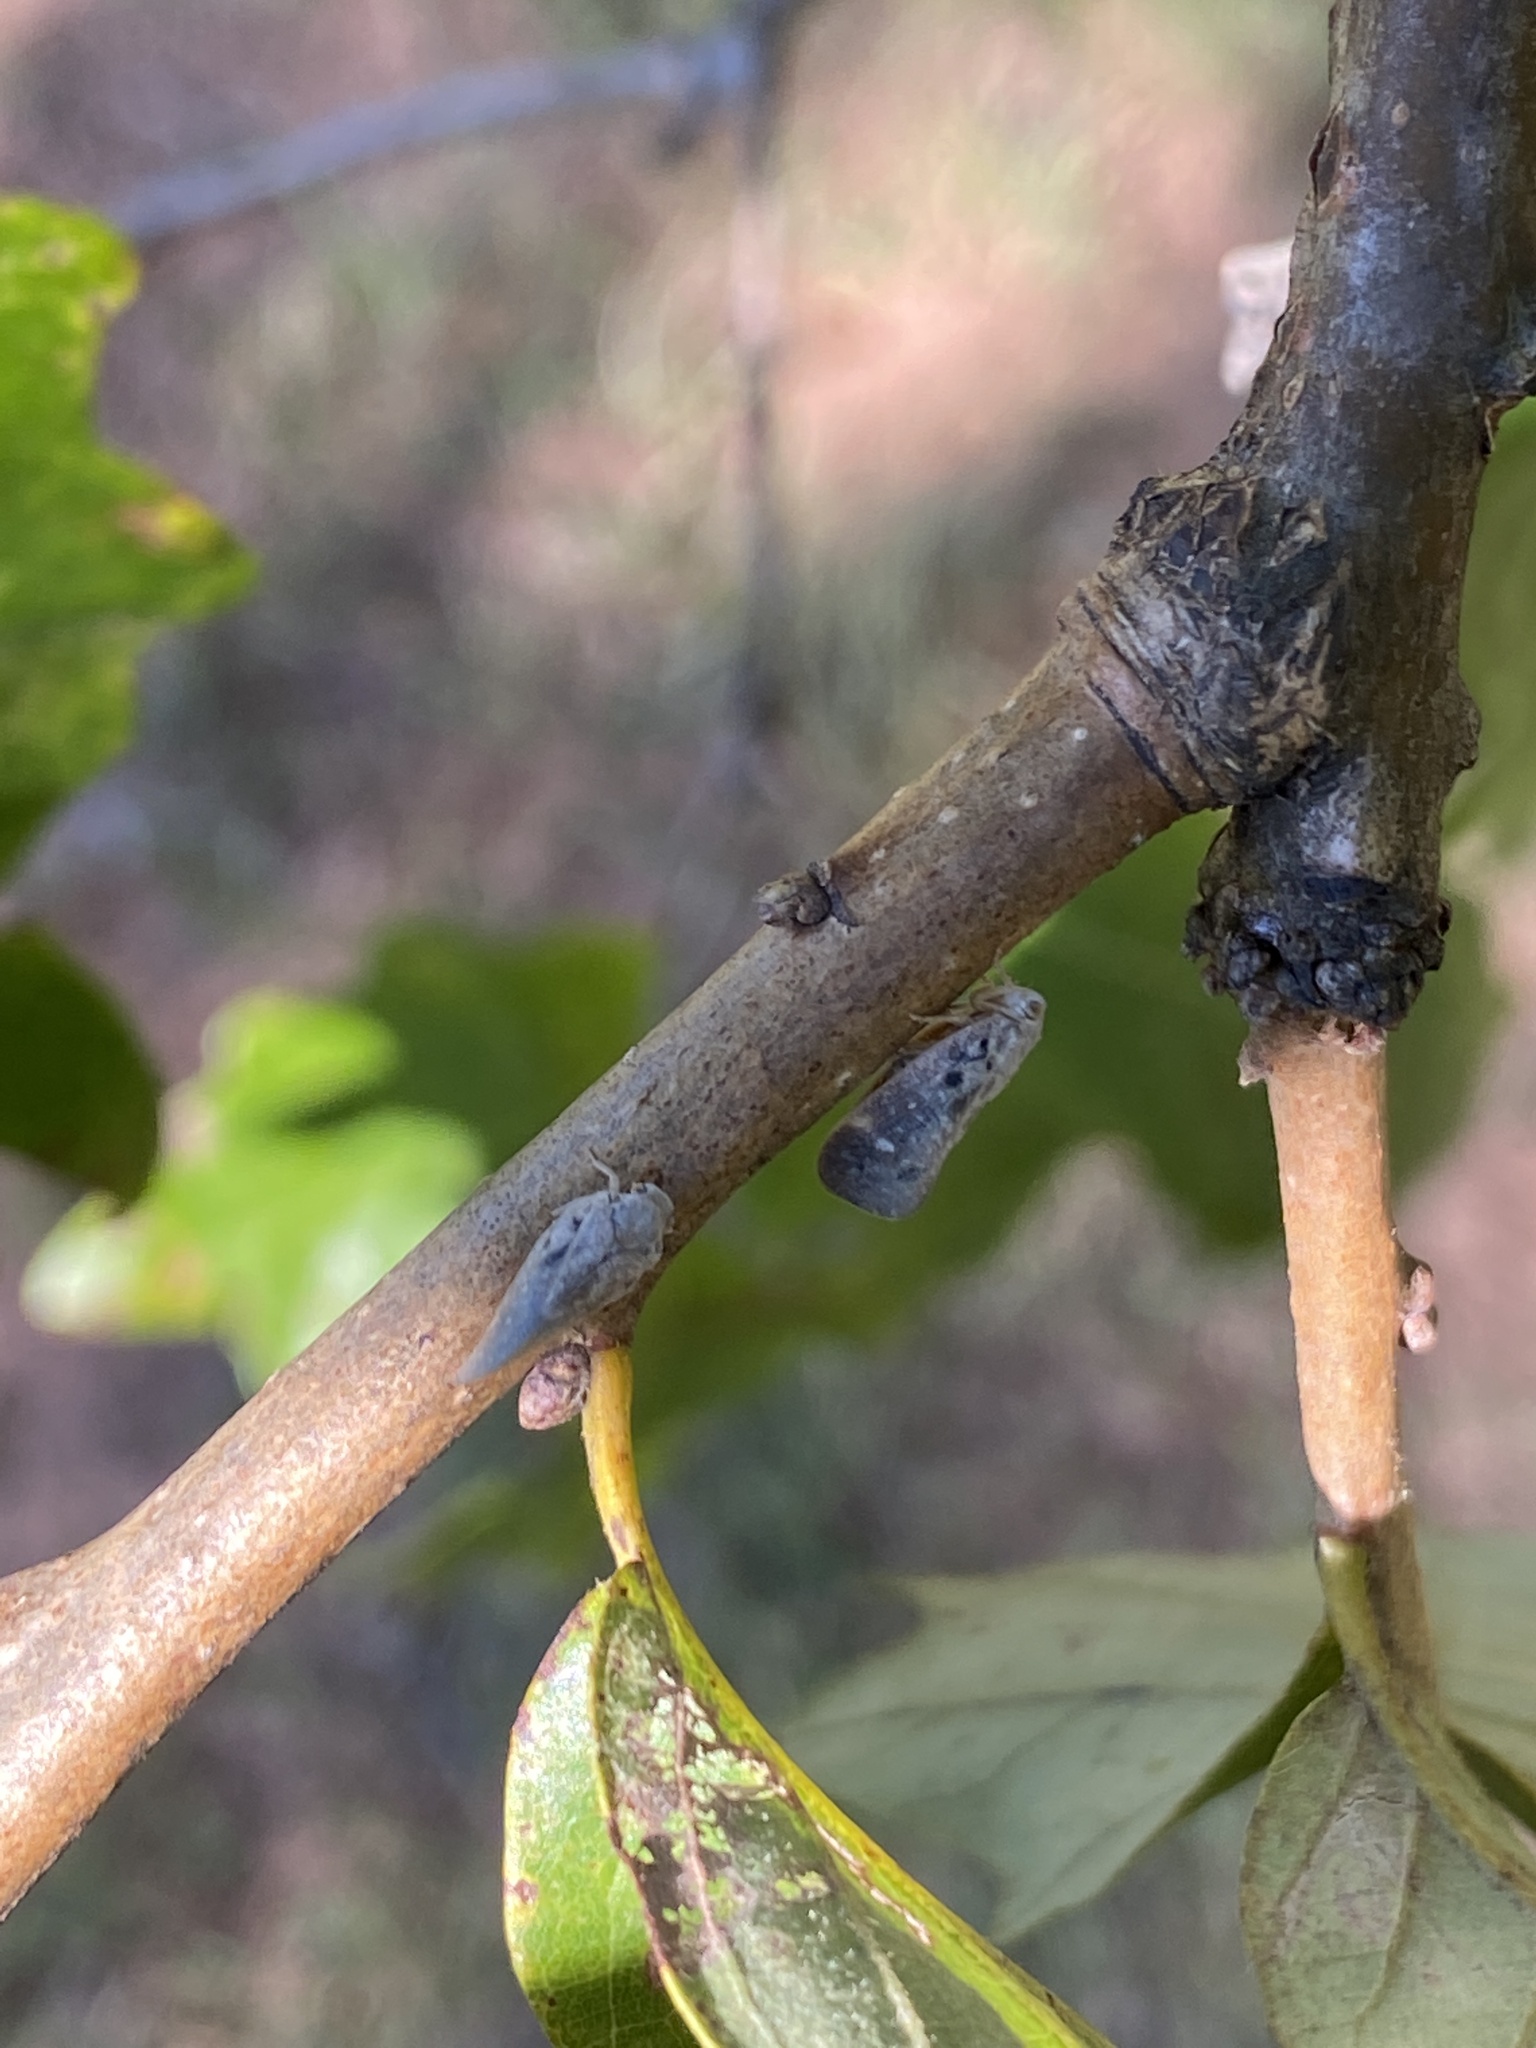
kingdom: Animalia
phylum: Arthropoda
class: Insecta
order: Hemiptera
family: Flatidae
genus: Metcalfa
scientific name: Metcalfa pruinosa
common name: Citrus flatid planthopper
